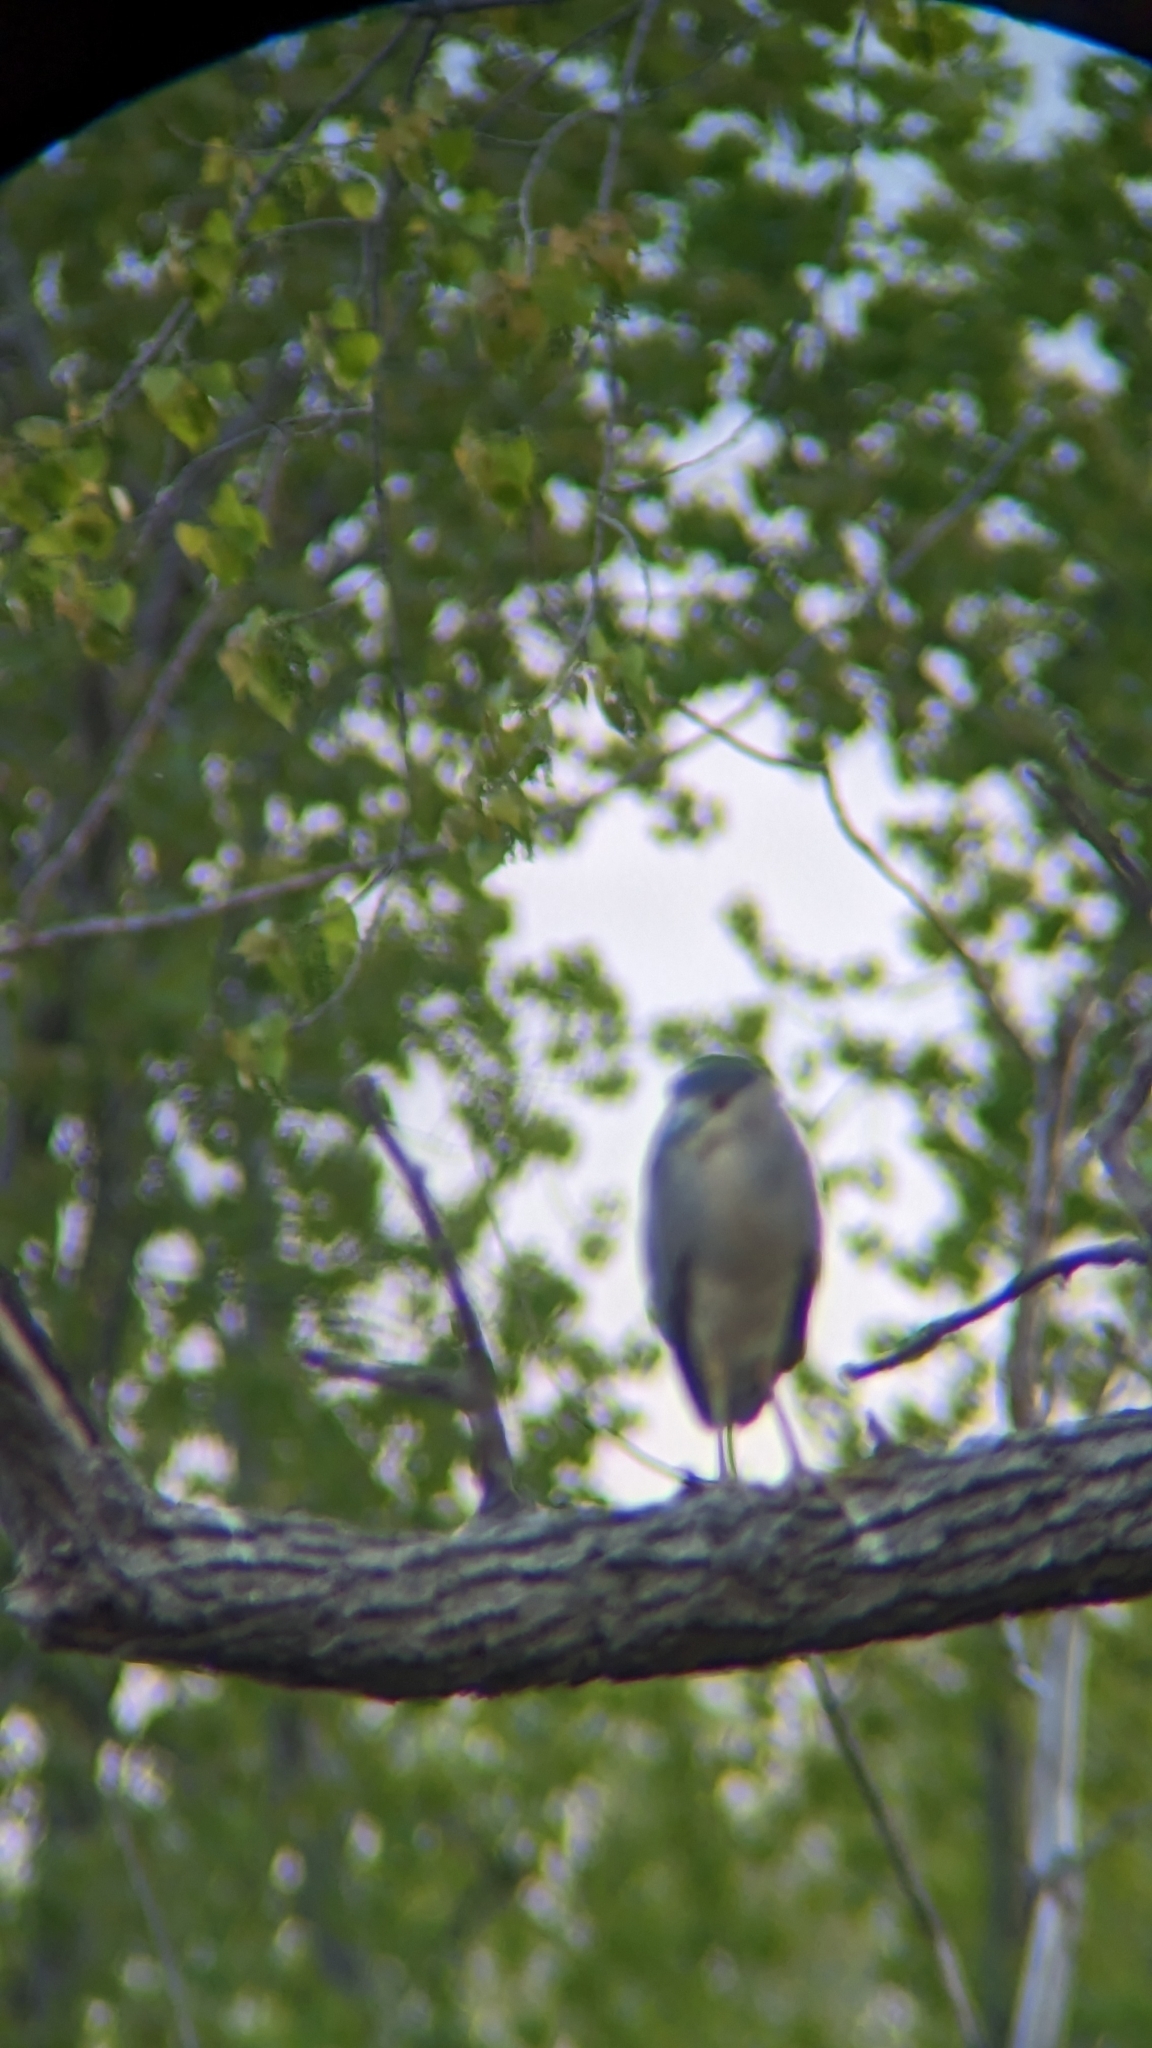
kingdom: Animalia
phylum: Chordata
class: Aves
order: Pelecaniformes
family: Ardeidae
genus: Nycticorax
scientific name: Nycticorax nycticorax
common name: Black-crowned night heron
